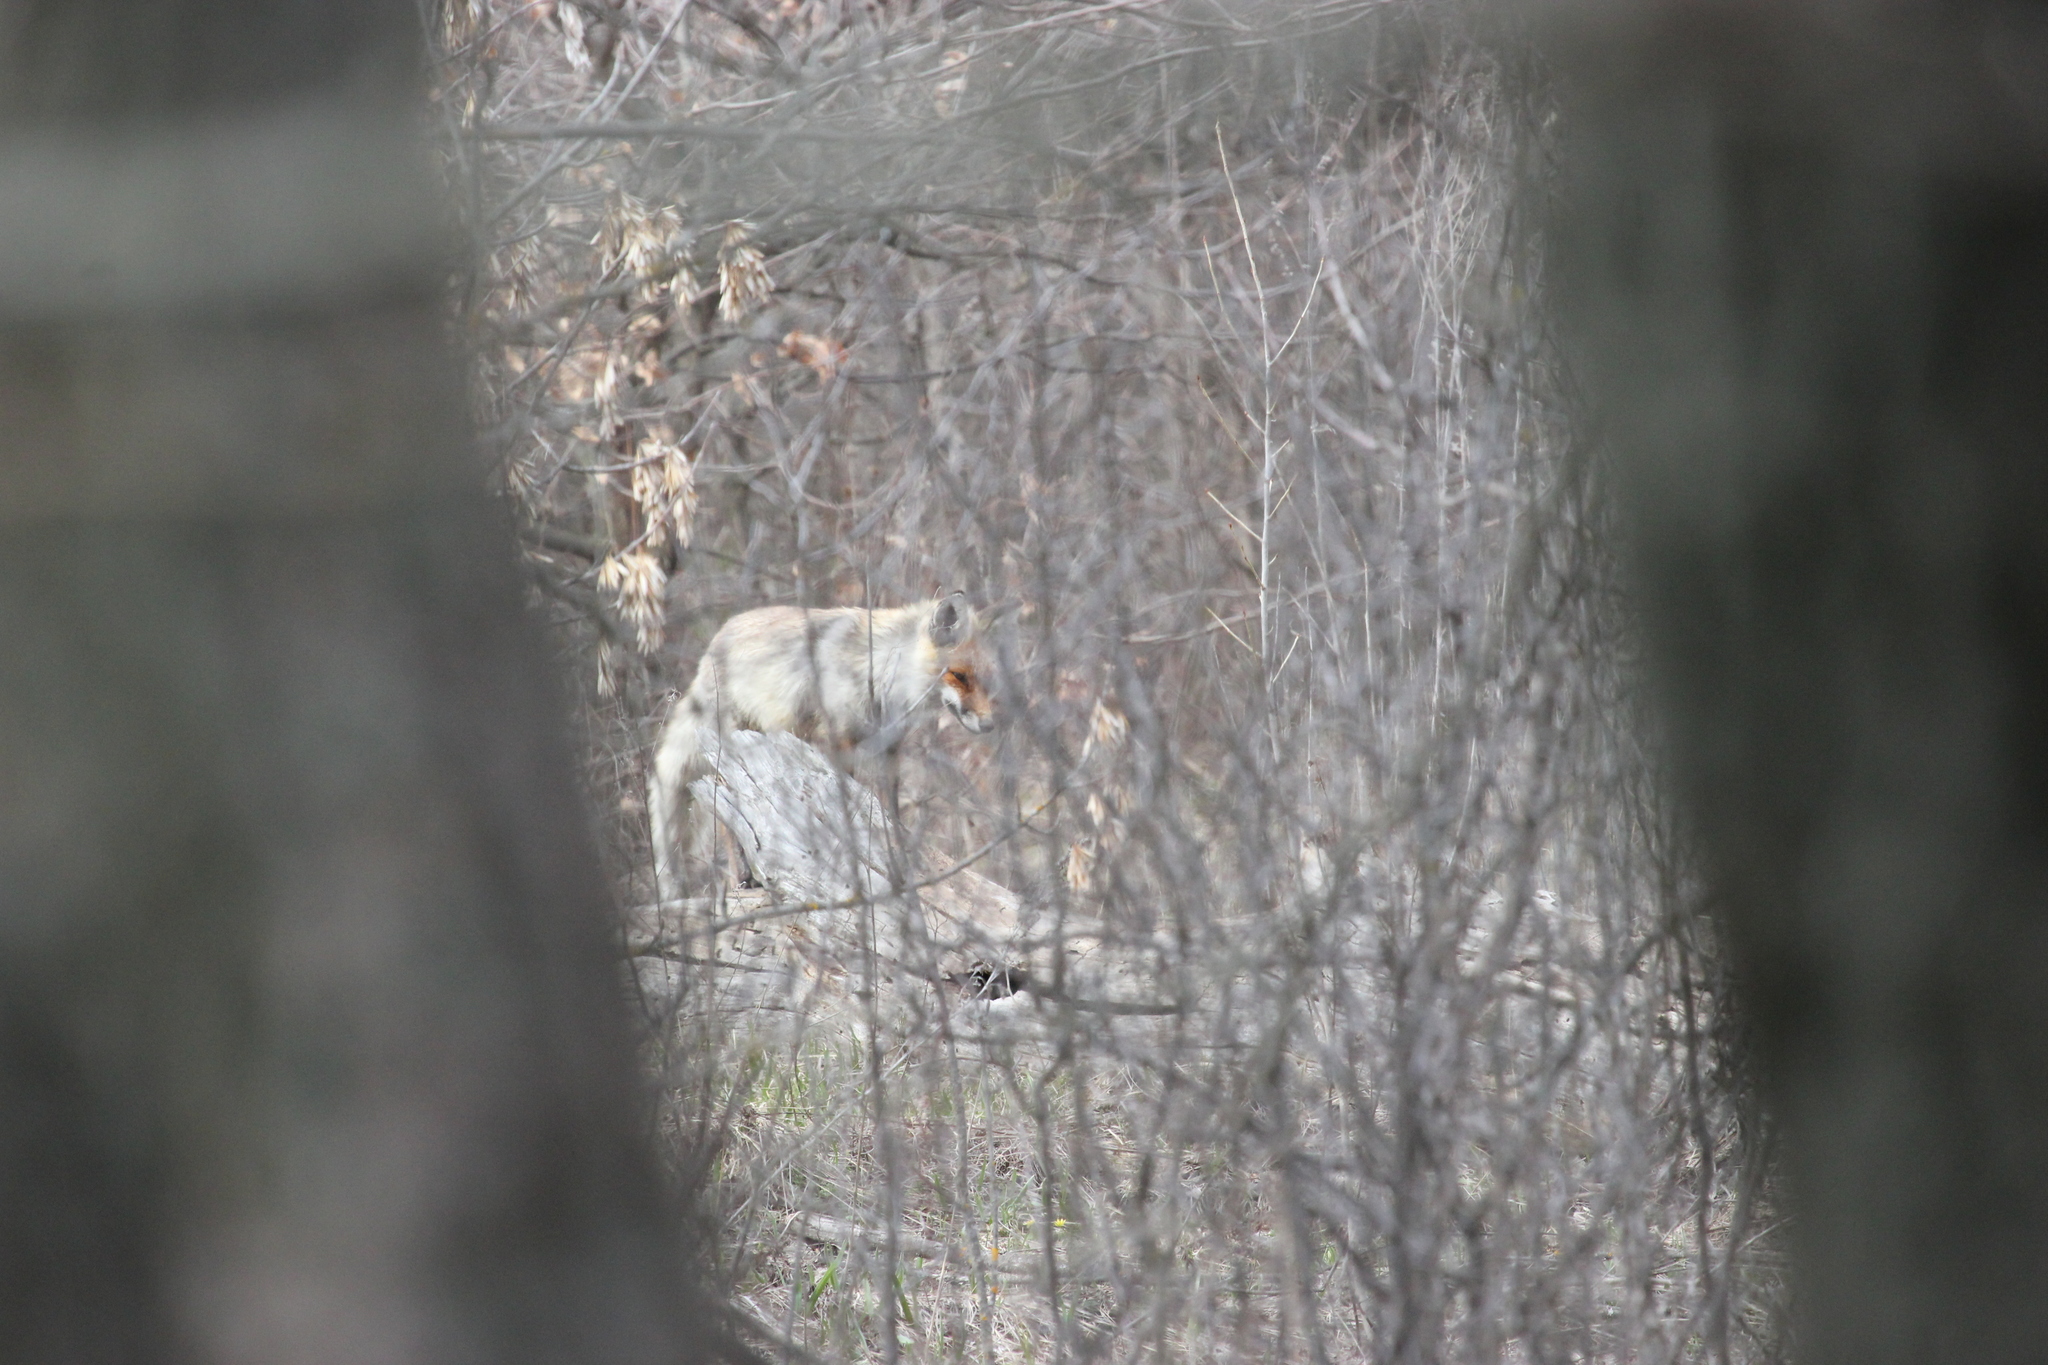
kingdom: Animalia
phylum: Chordata
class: Mammalia
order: Carnivora
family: Canidae
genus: Vulpes
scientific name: Vulpes vulpes
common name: Red fox
